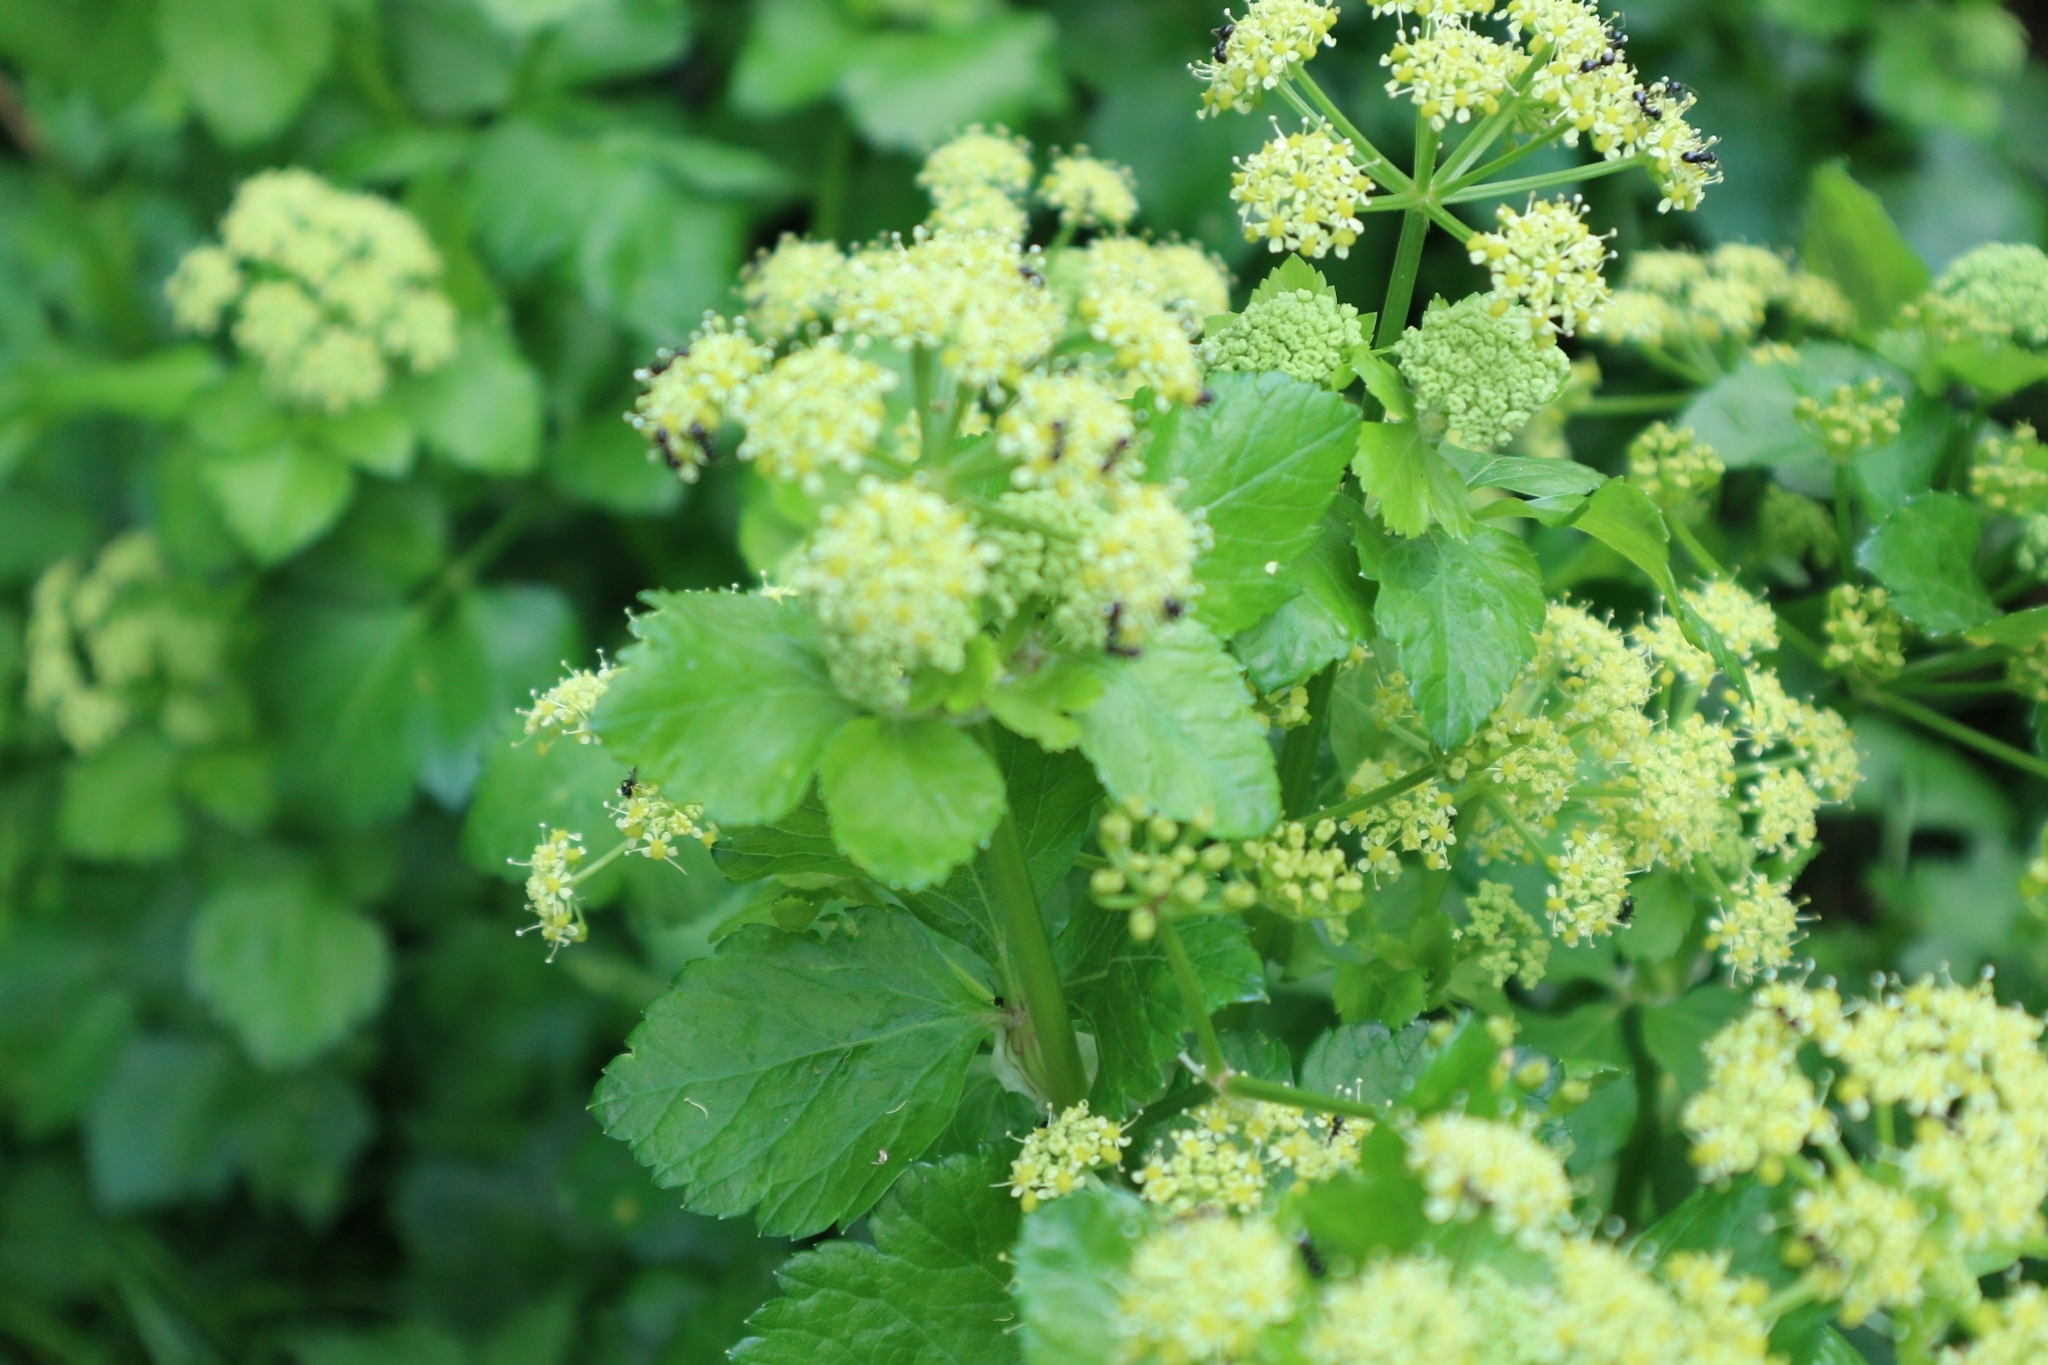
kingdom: Plantae
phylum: Tracheophyta
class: Magnoliopsida
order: Apiales
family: Apiaceae
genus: Smyrnium
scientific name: Smyrnium olusatrum
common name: Alexanders
